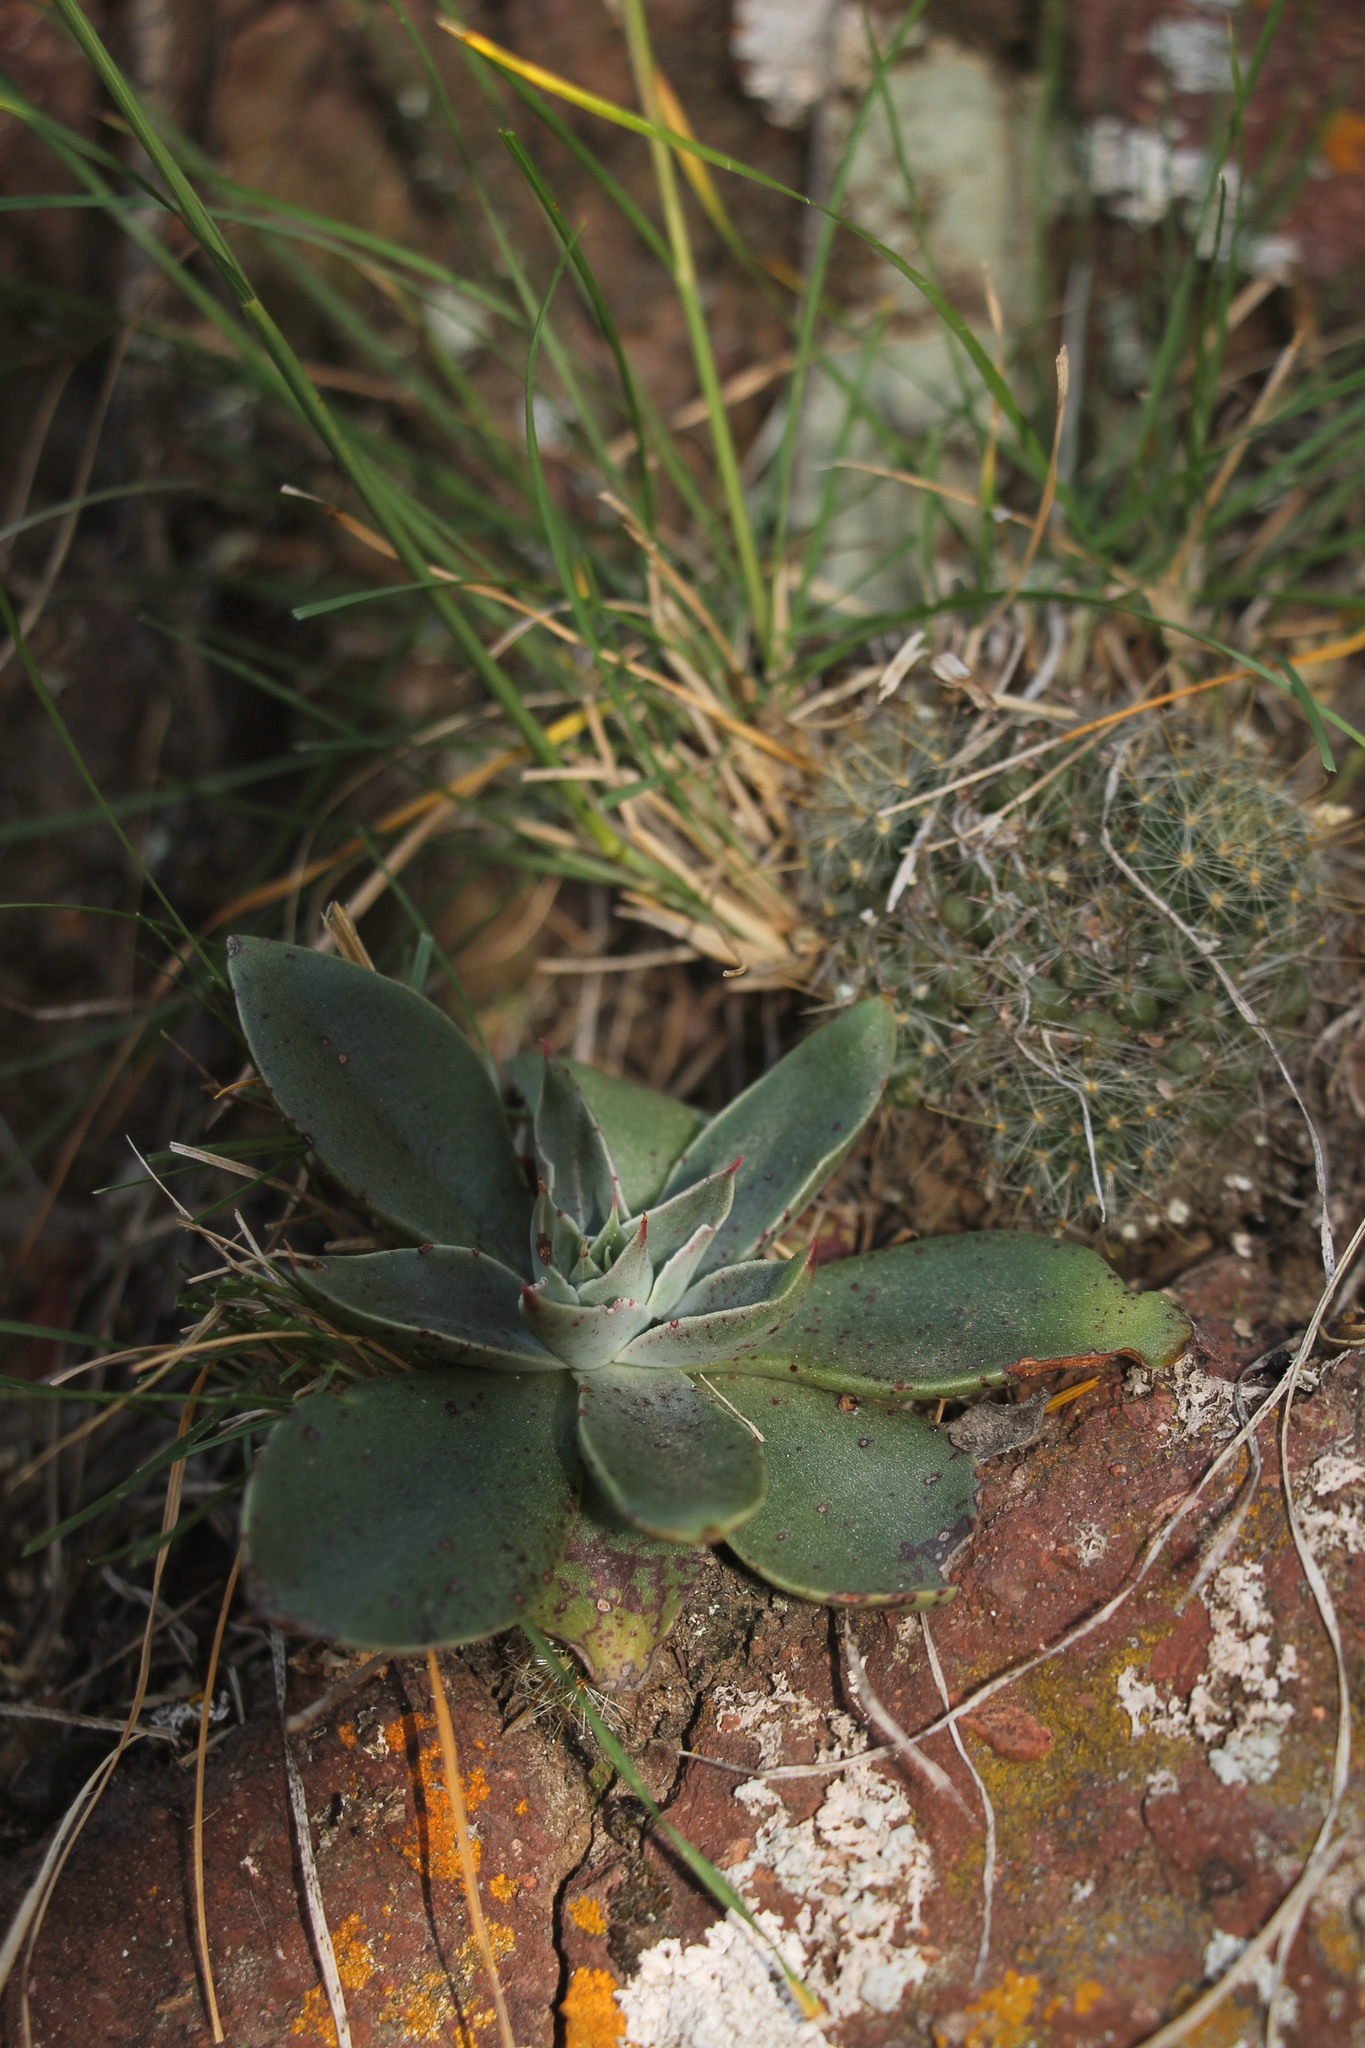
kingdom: Plantae
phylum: Tracheophyta
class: Magnoliopsida
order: Saxifragales
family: Crassulaceae
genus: Echeveria
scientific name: Echeveria paniculata
